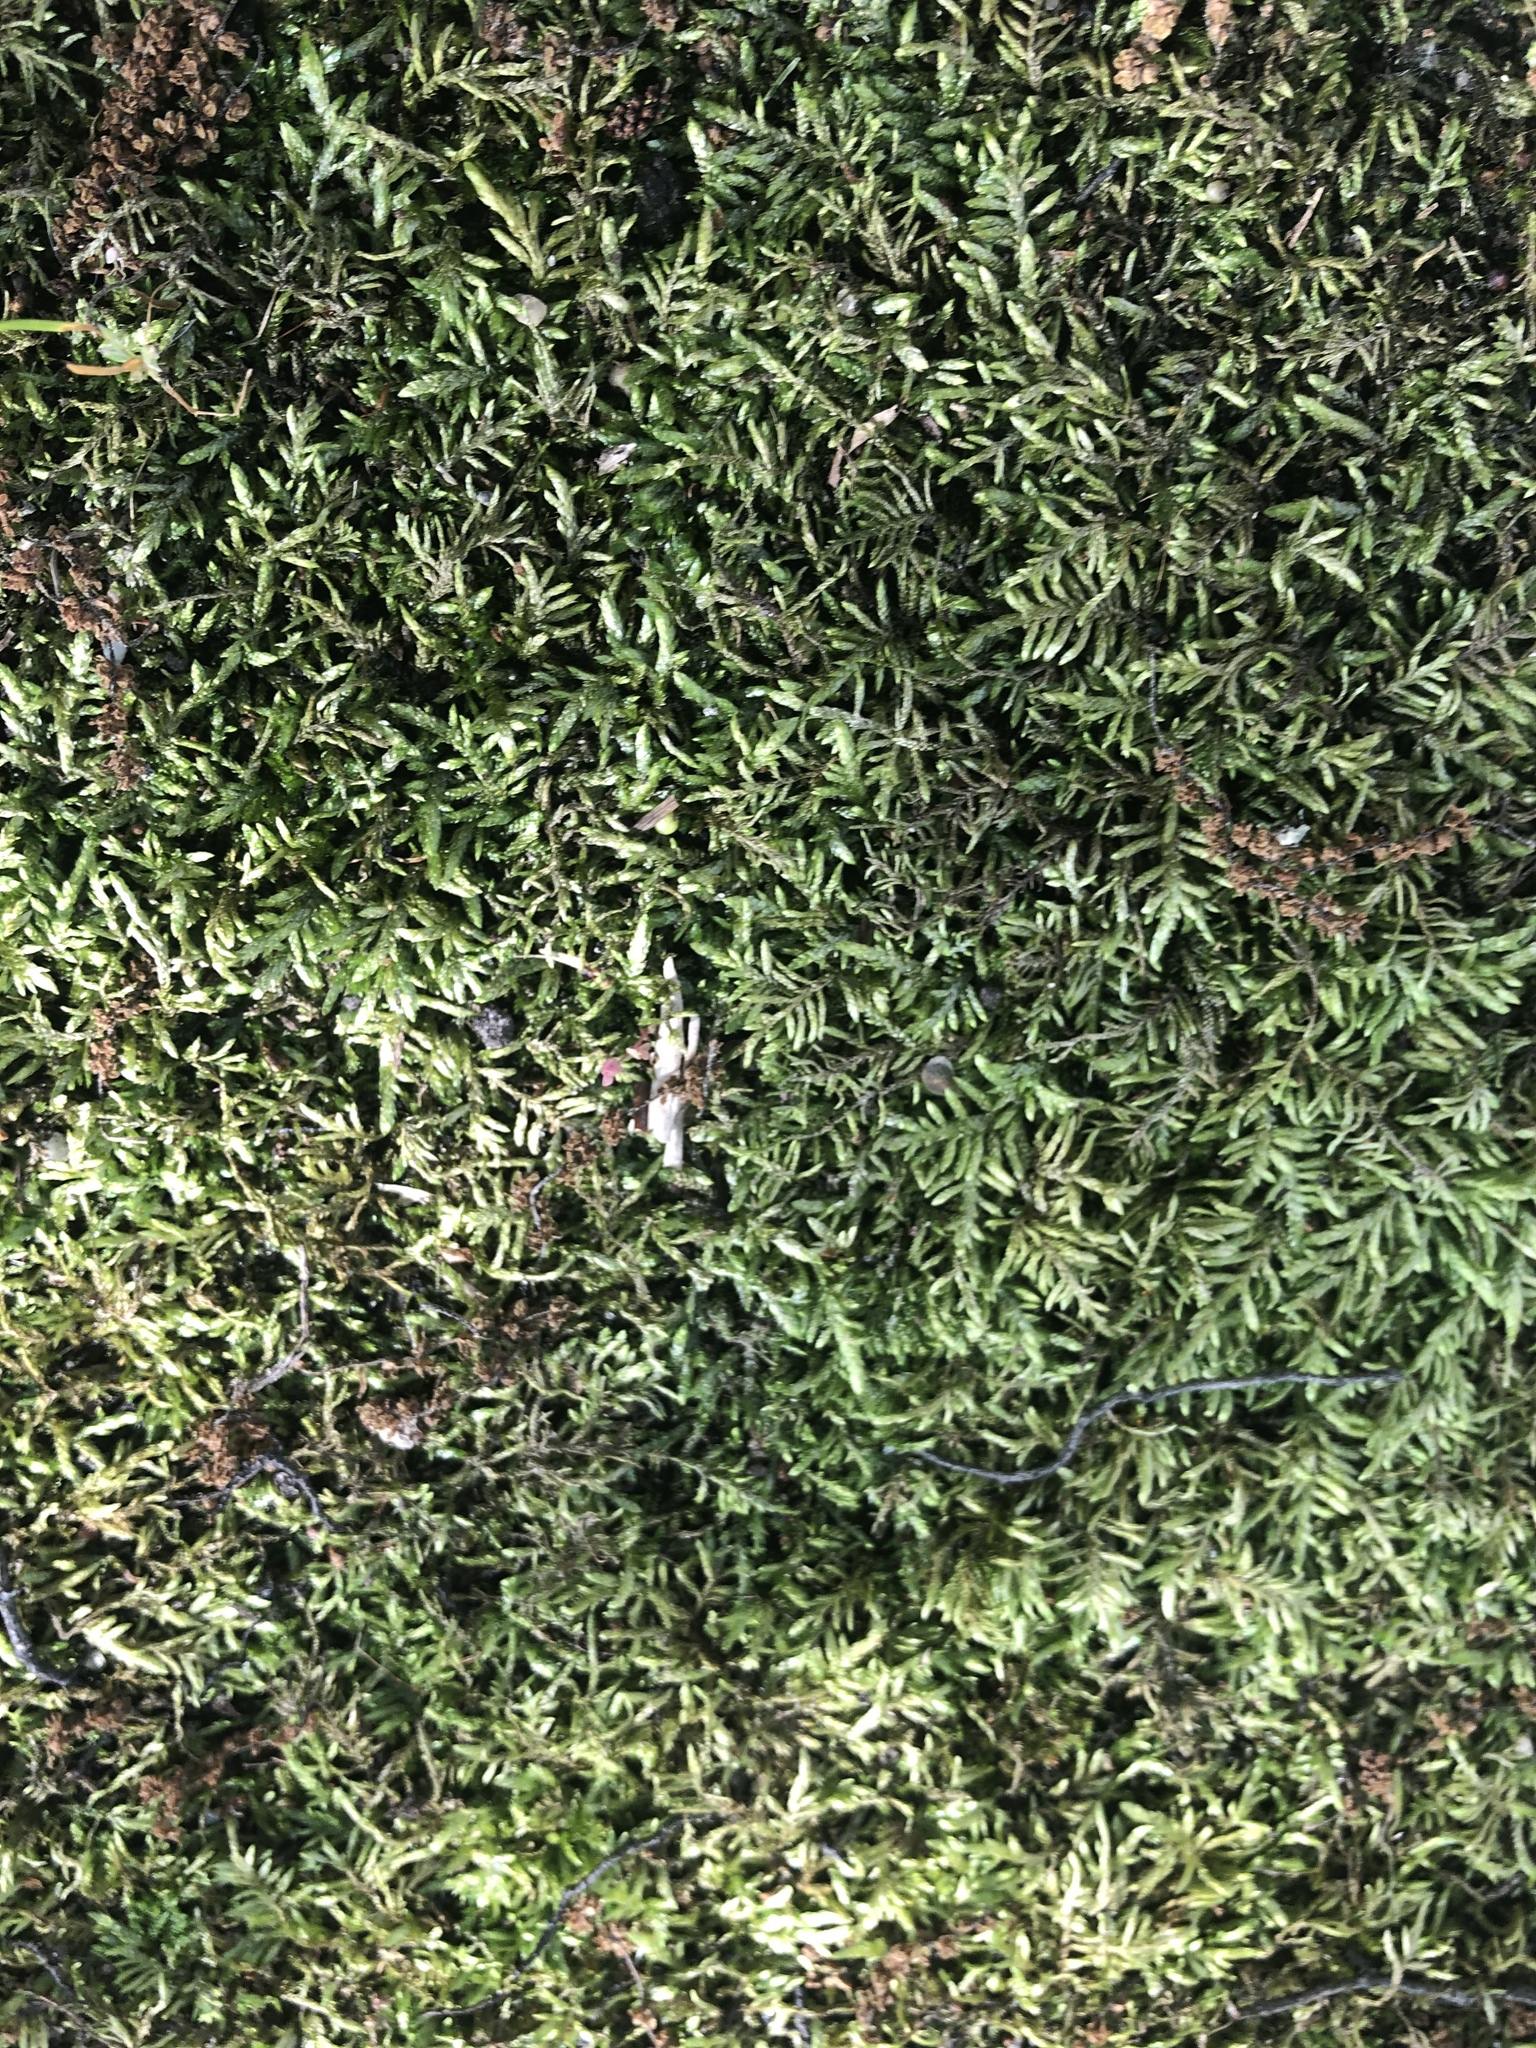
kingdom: Plantae
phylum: Bryophyta
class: Bryopsida
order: Hypnales
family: Entodontaceae
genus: Entodon
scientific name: Entodon seductrix
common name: Round-stemmed entodon moss
